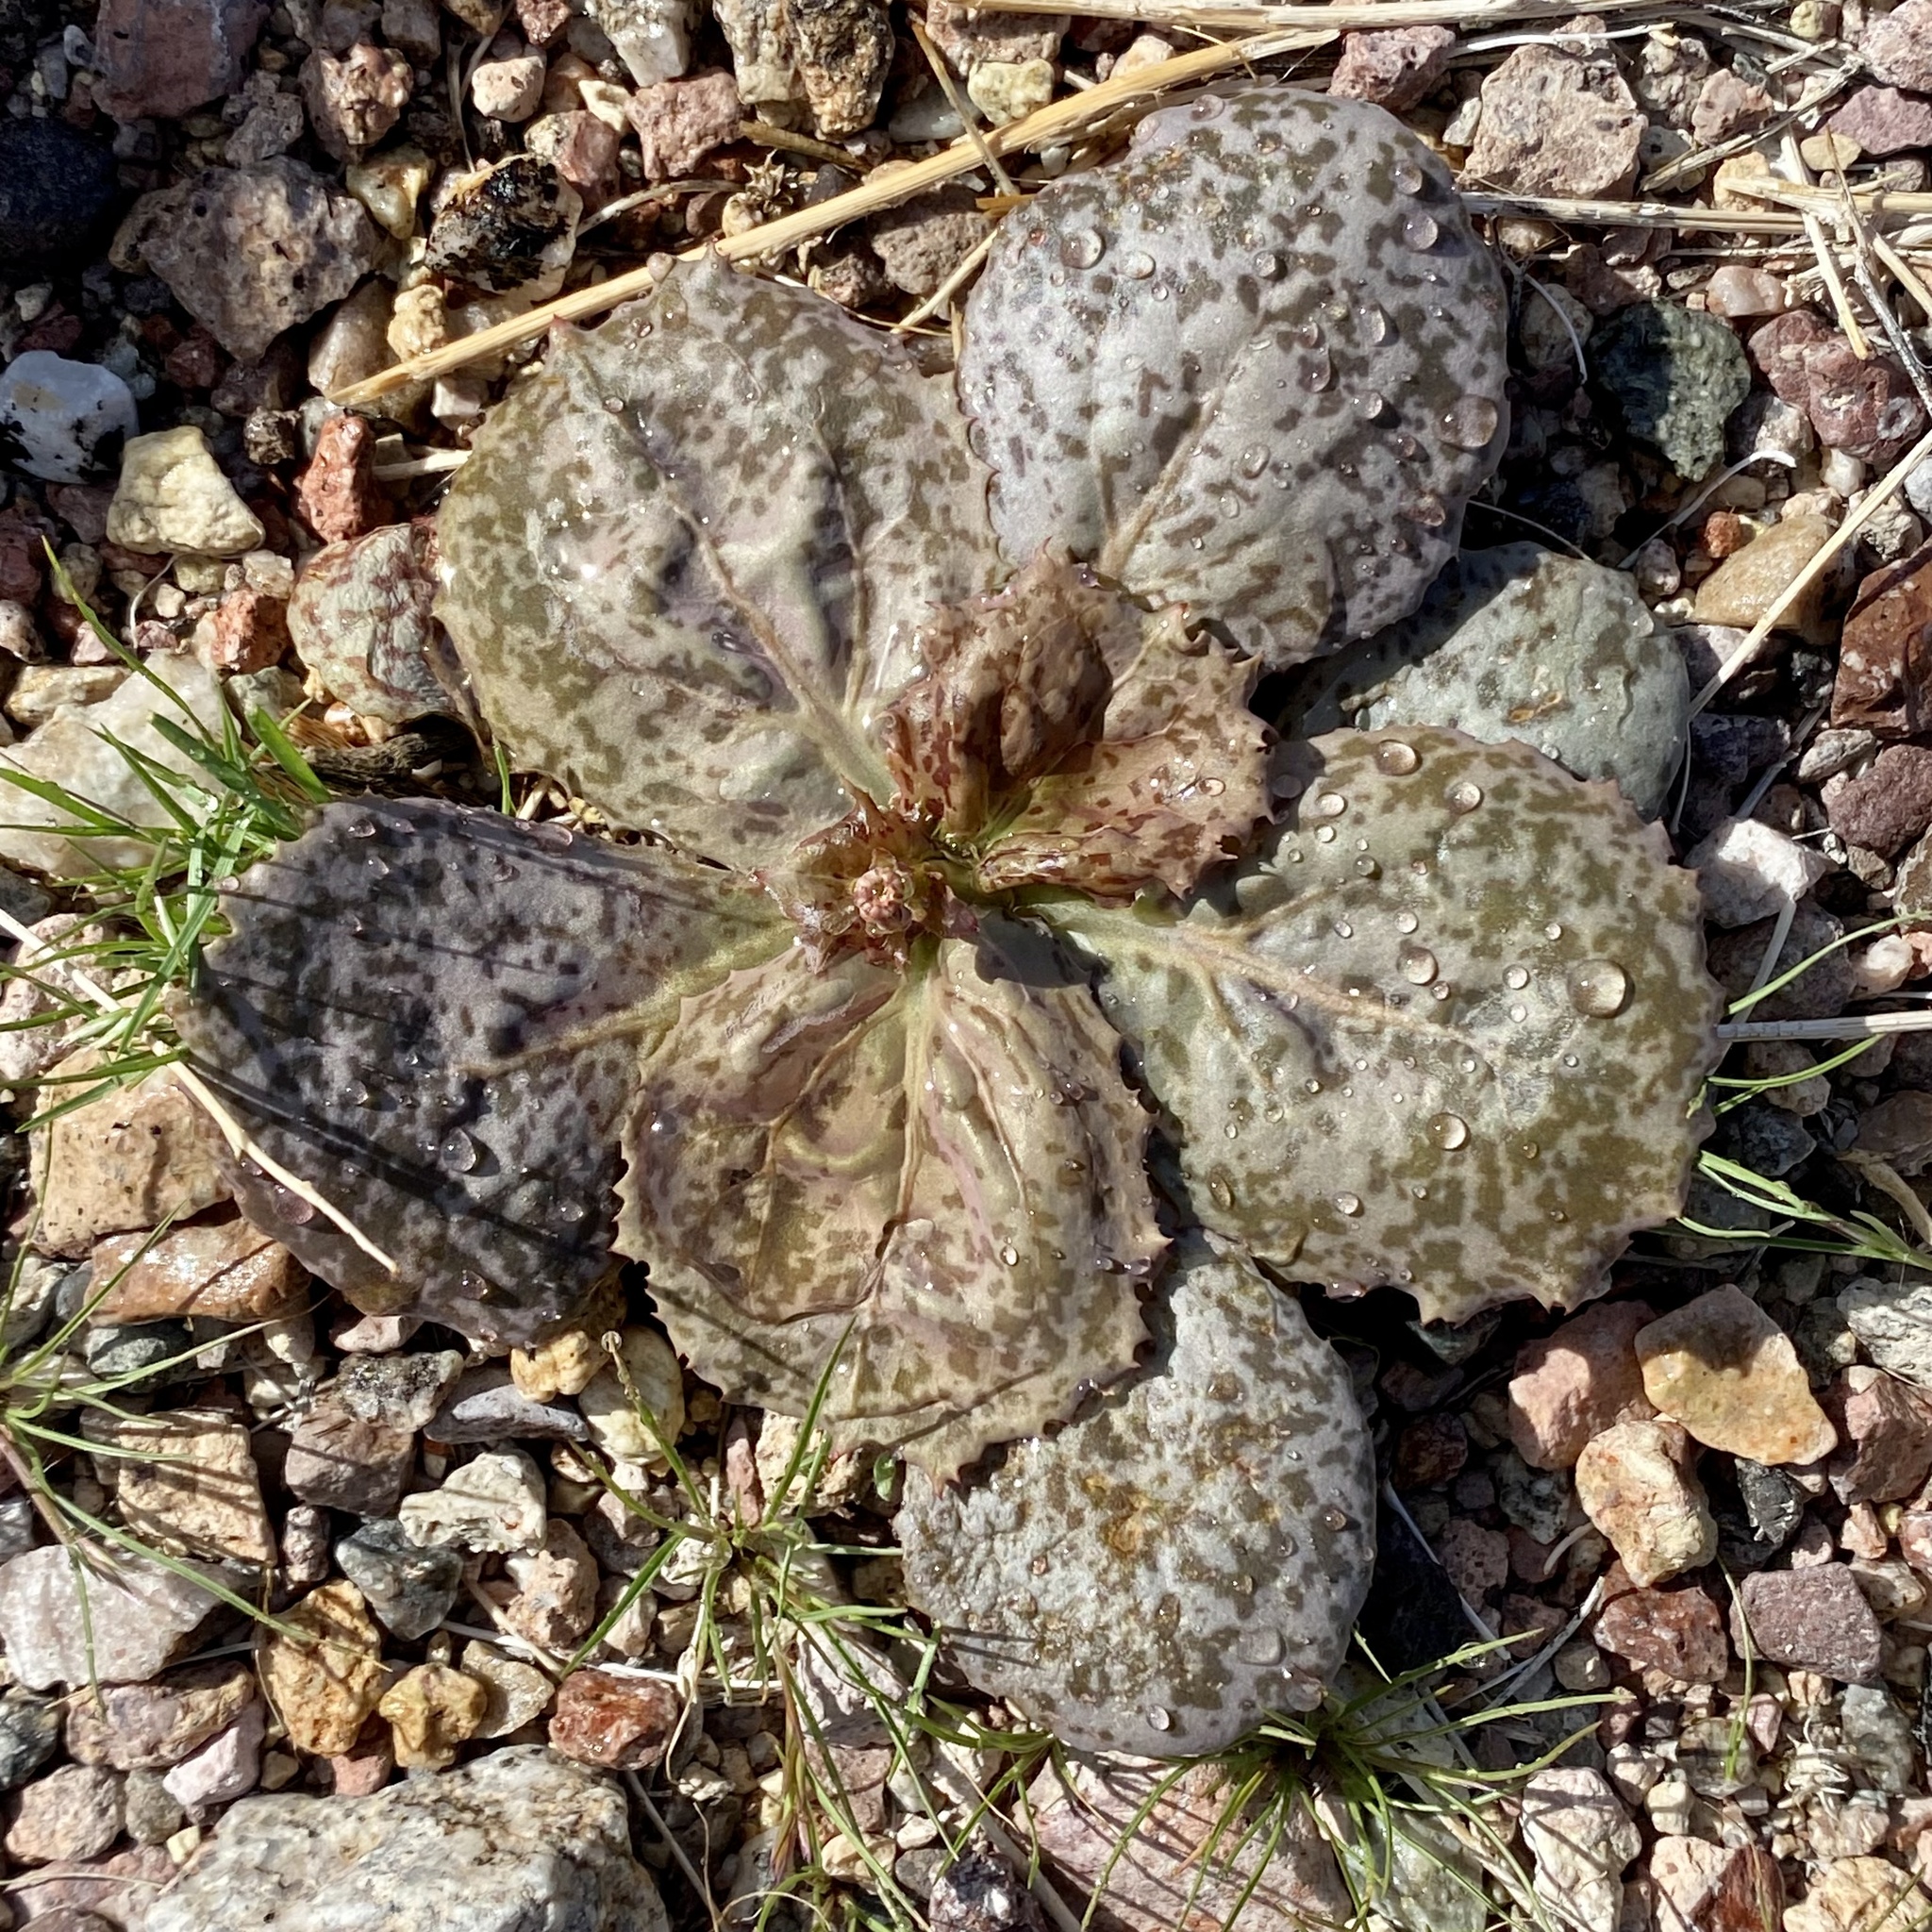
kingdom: Plantae
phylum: Tracheophyta
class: Magnoliopsida
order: Asterales
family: Asteraceae
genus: Atrichoseris
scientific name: Atrichoseris platyphylla
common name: Tobaccoweed
